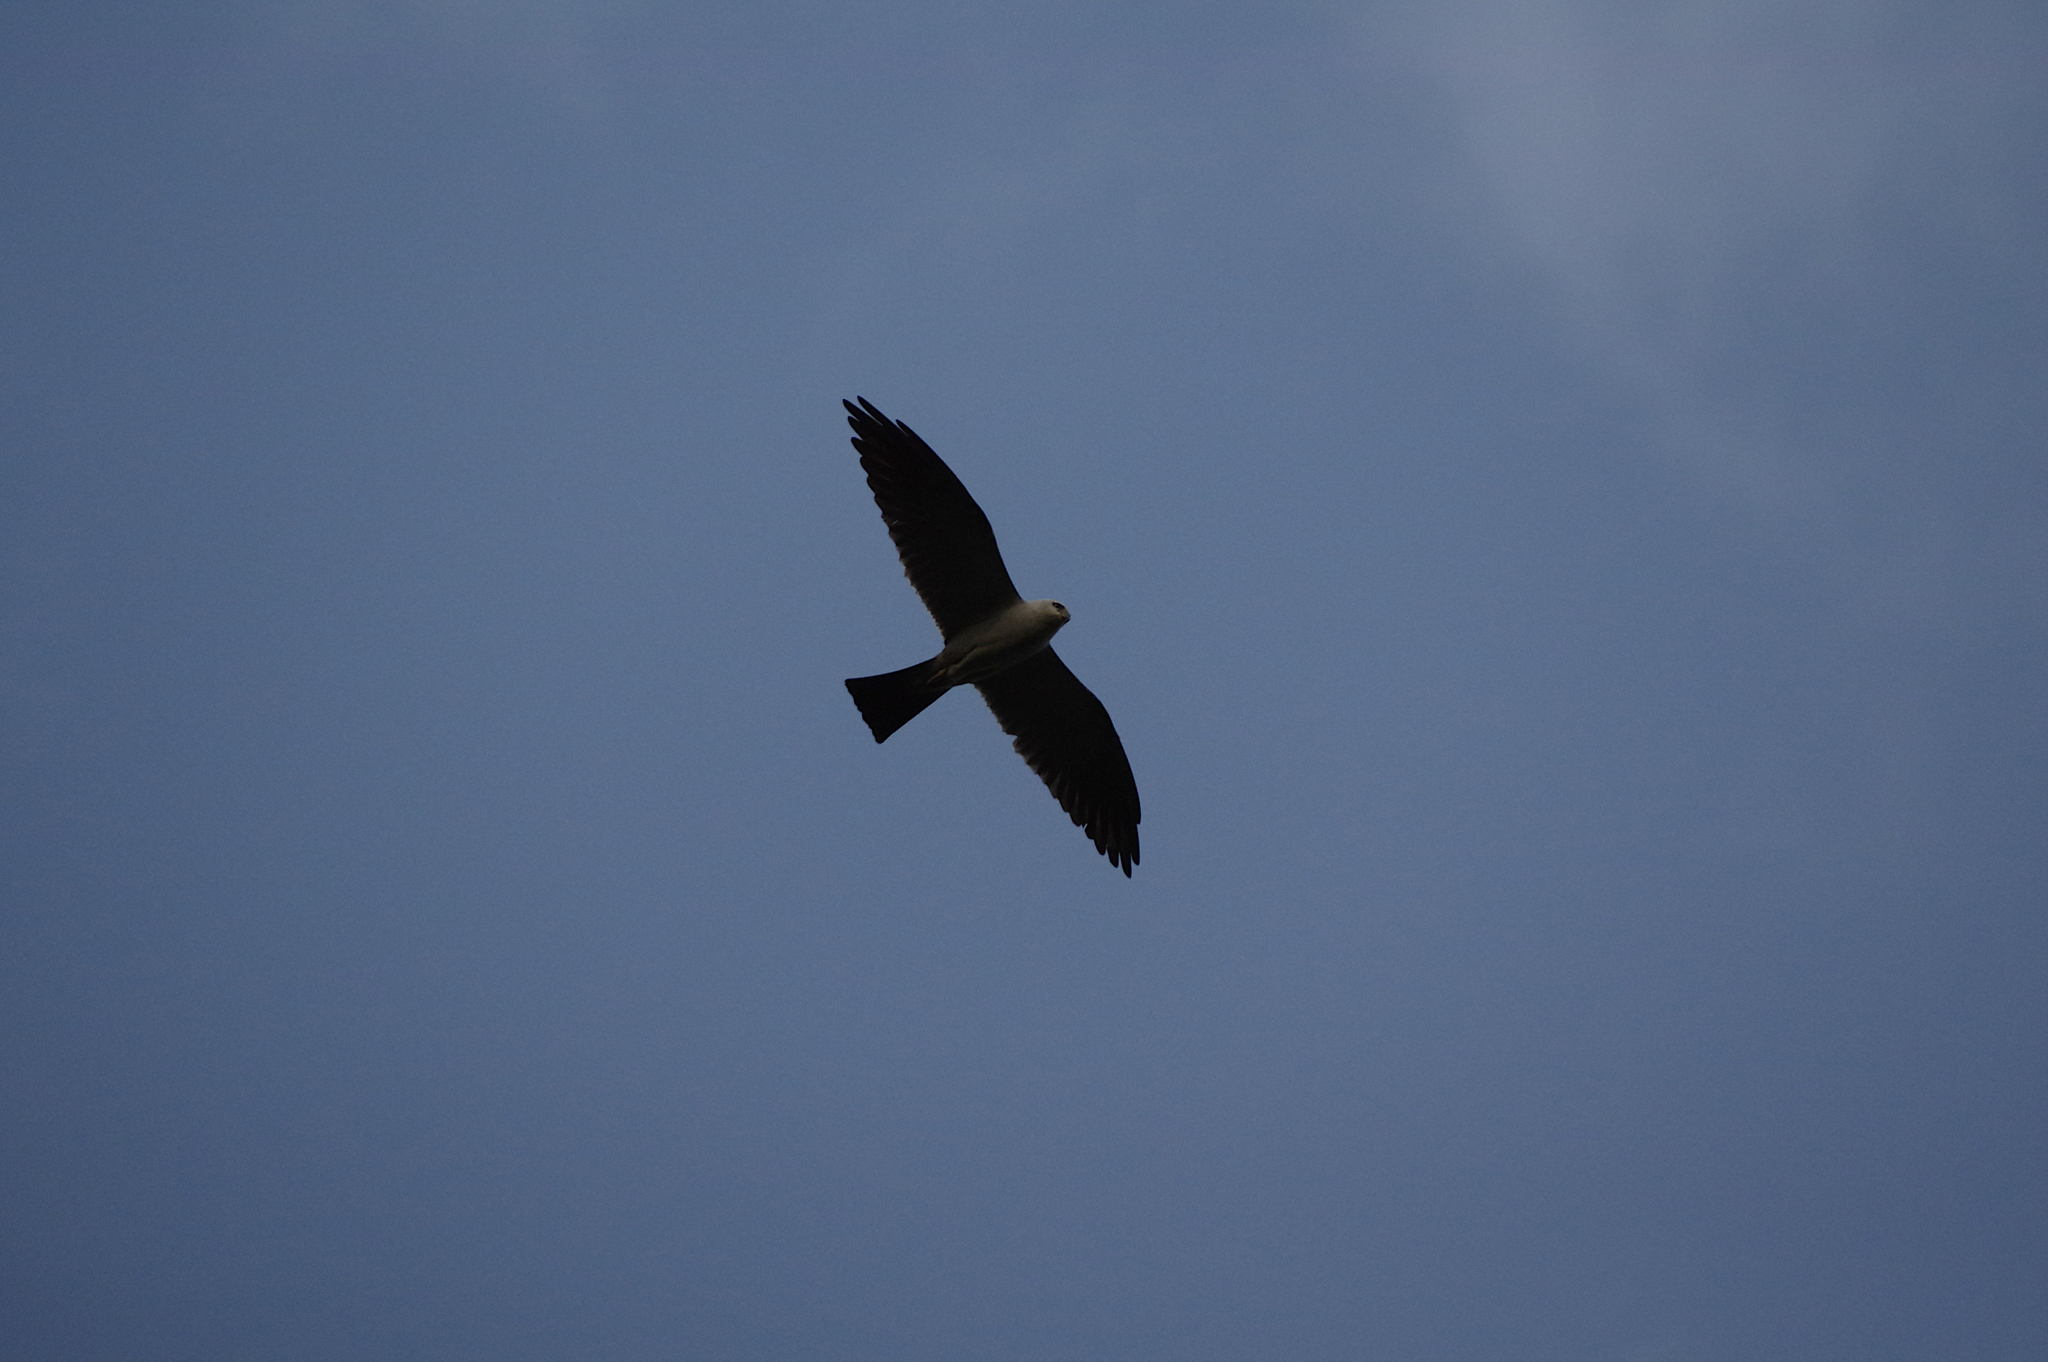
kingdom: Animalia
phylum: Chordata
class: Aves
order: Accipitriformes
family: Accipitridae
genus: Ictinia
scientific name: Ictinia mississippiensis
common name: Mississippi kite
